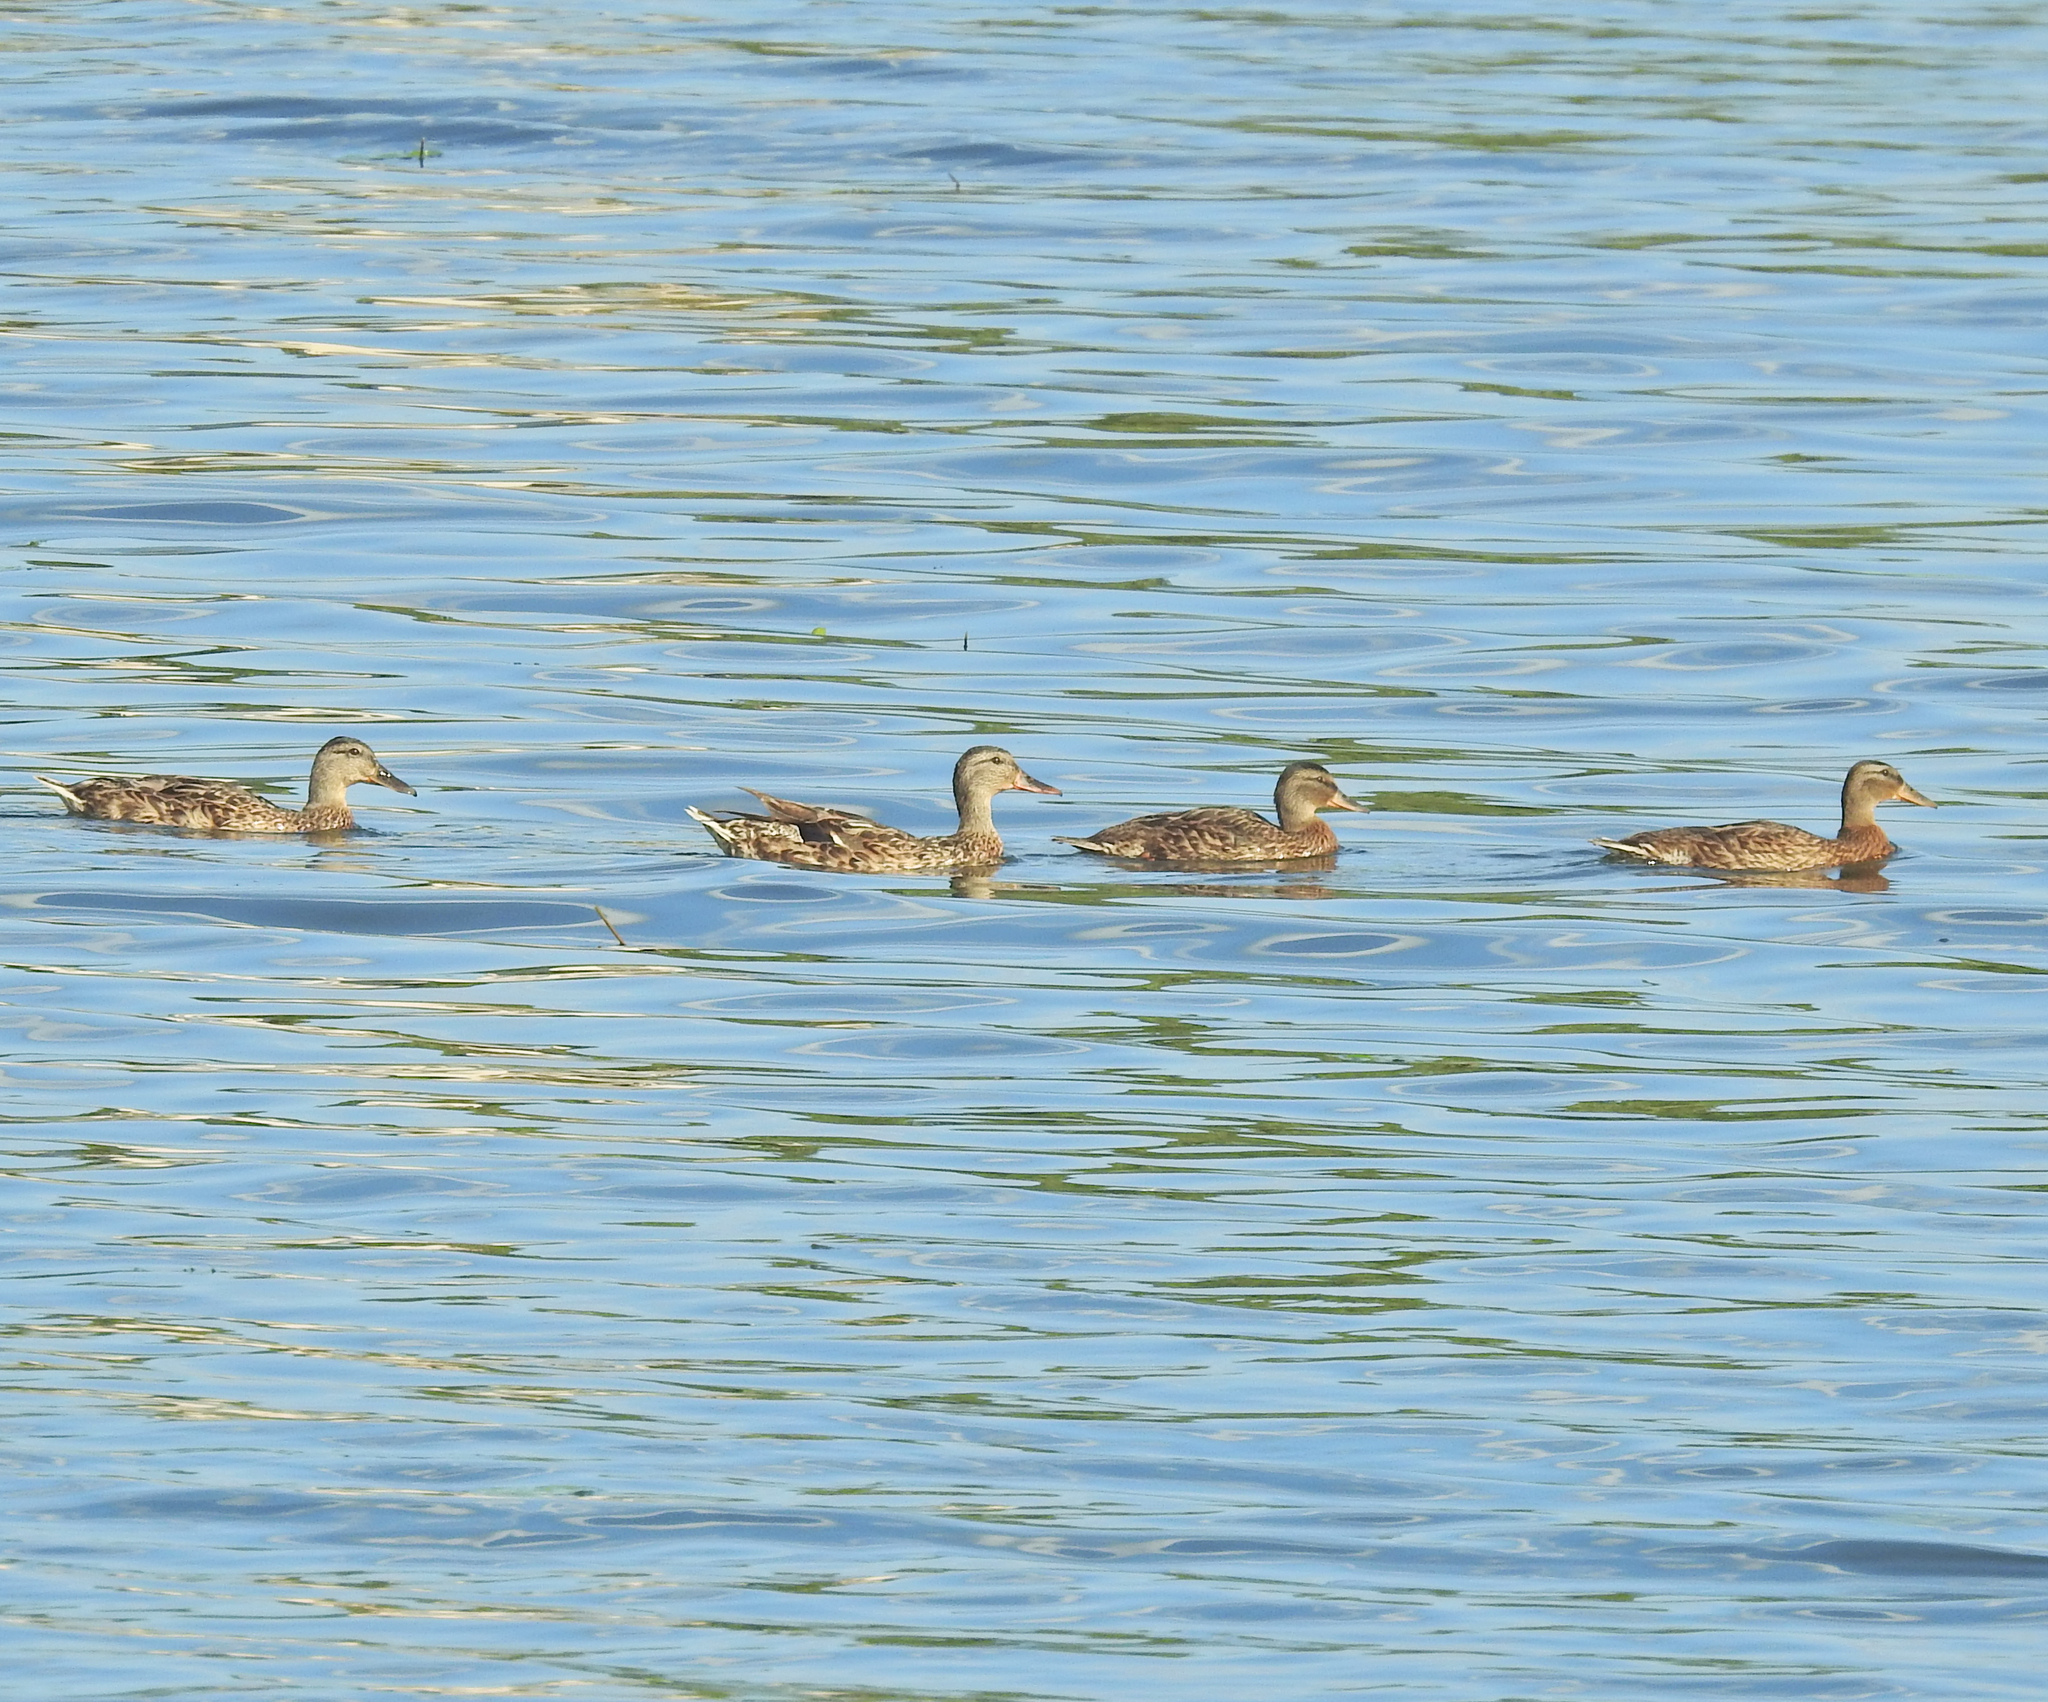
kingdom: Animalia
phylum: Chordata
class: Aves
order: Anseriformes
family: Anatidae
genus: Anas
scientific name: Anas platyrhynchos
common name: Mallard
